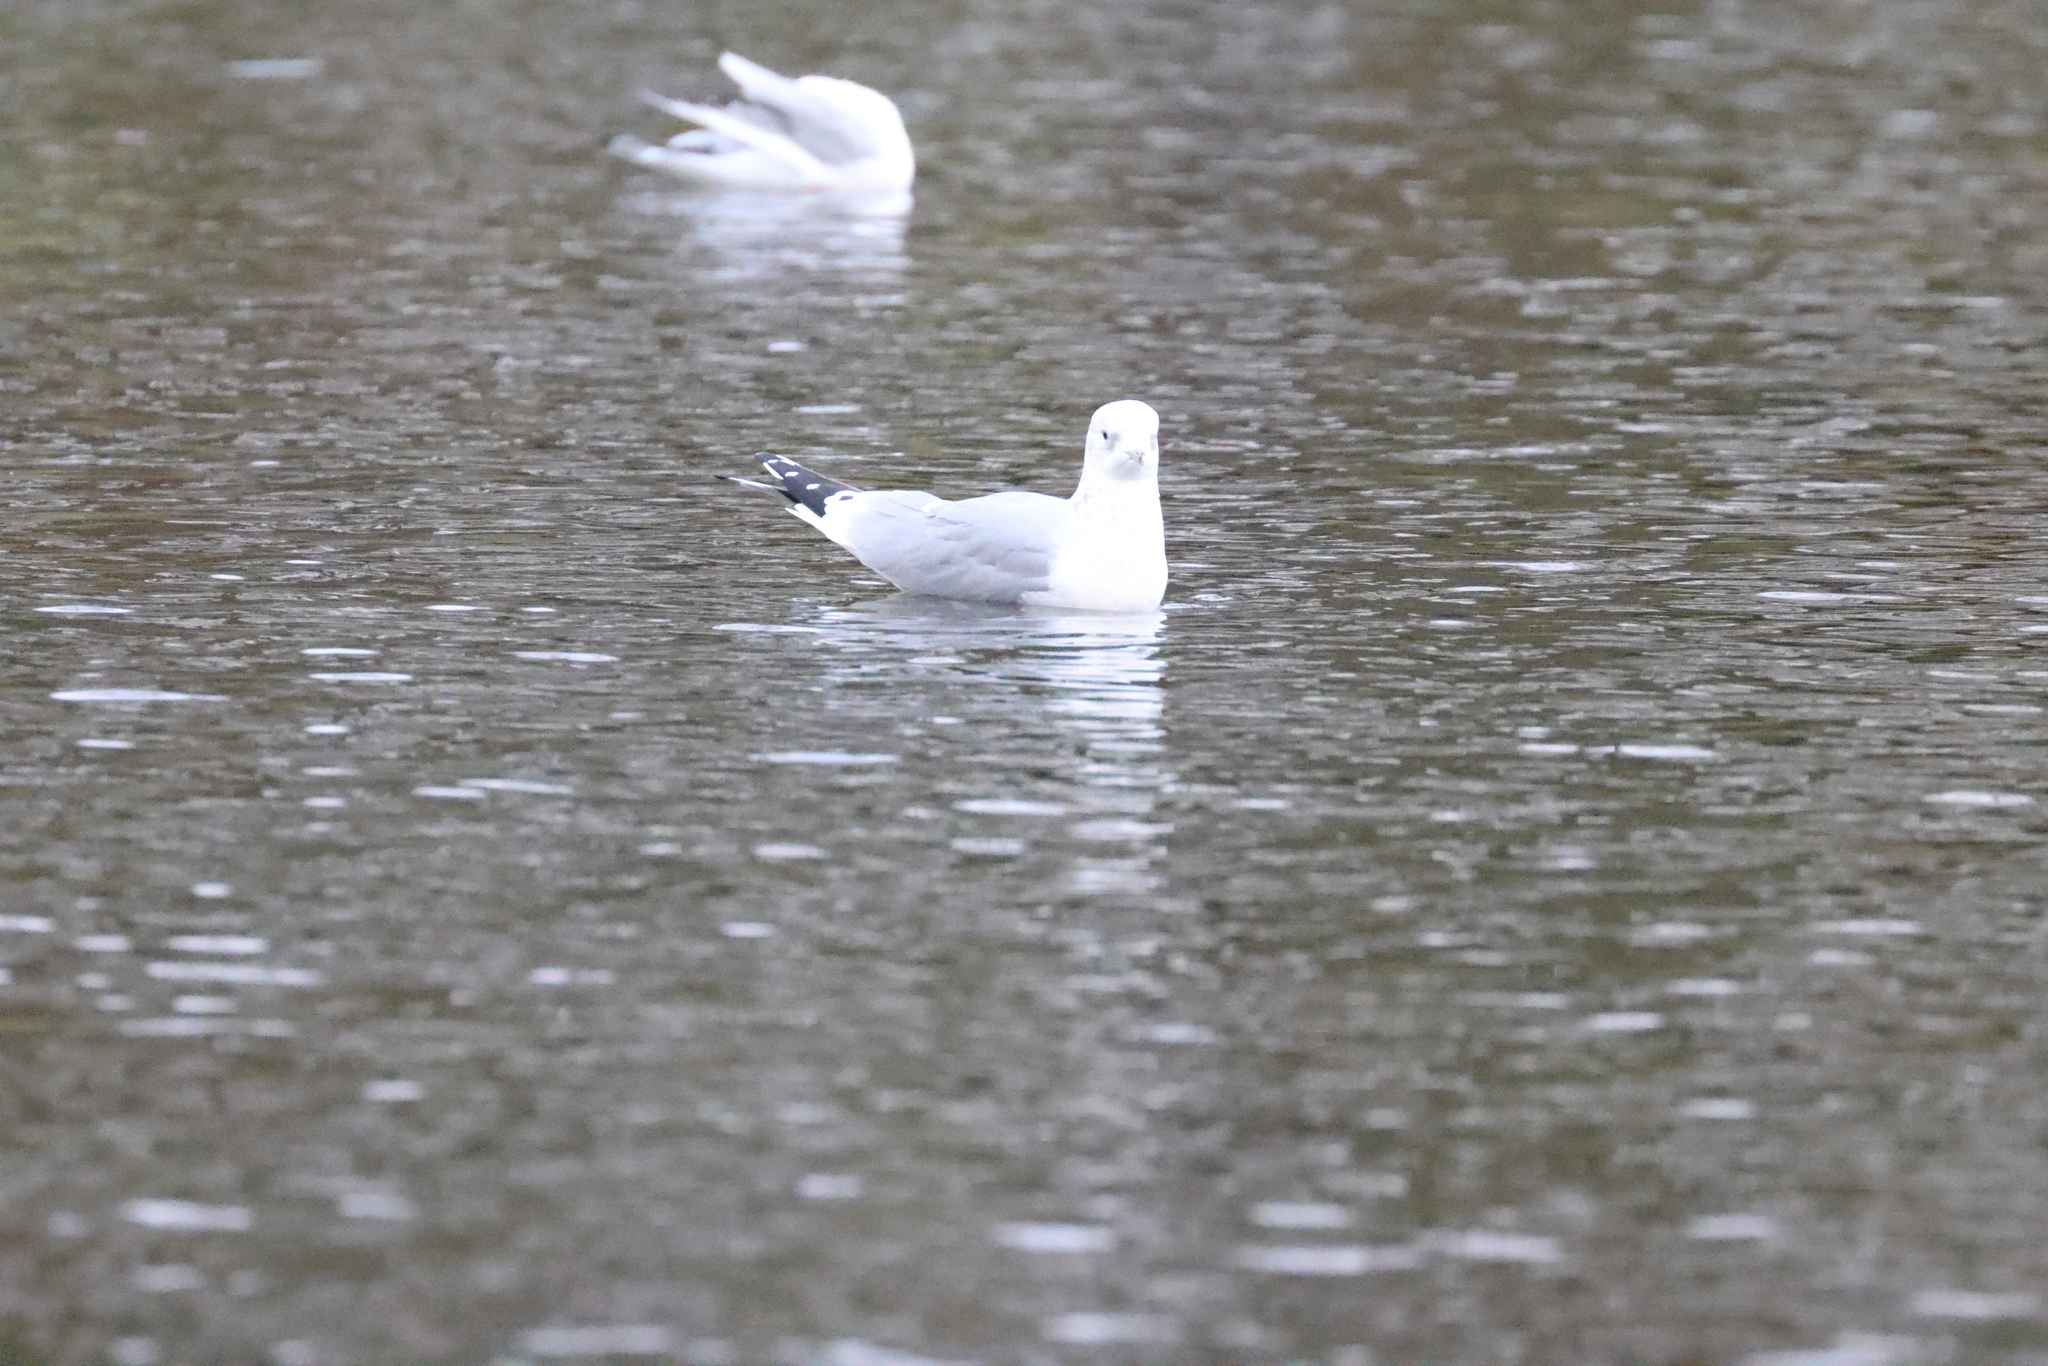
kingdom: Animalia
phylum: Chordata
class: Aves
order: Charadriiformes
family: Laridae
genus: Larus
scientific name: Larus canus
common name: Mew gull
